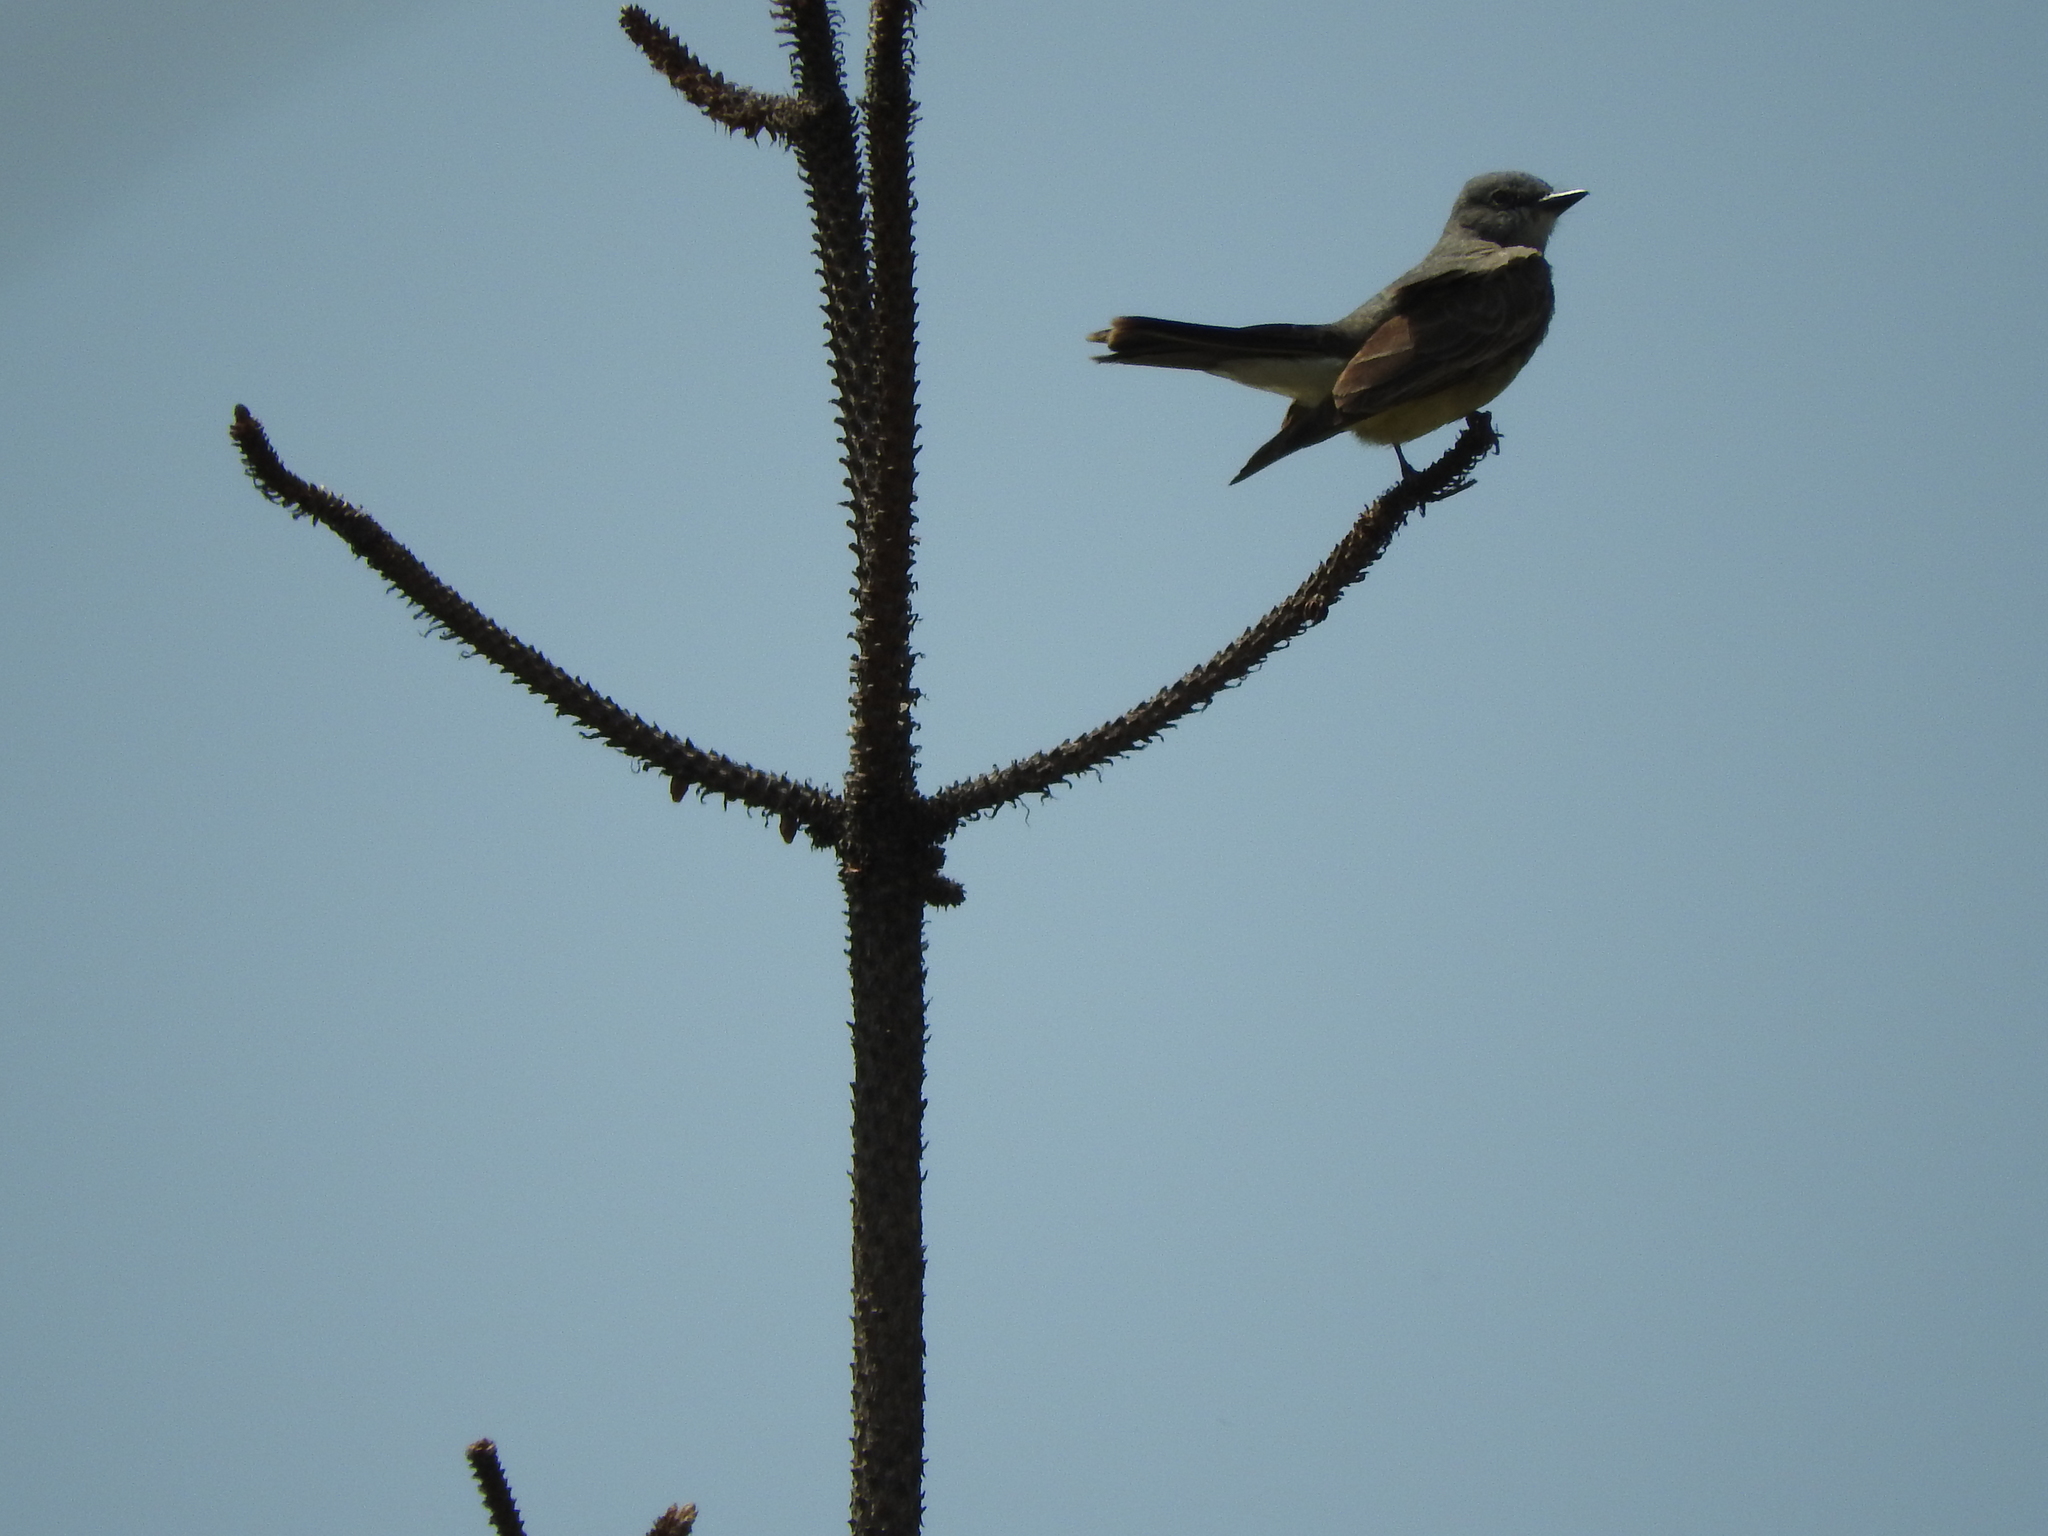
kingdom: Animalia
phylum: Chordata
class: Aves
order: Passeriformes
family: Tyrannidae
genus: Tyrannus
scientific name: Tyrannus vociferans
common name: Cassin's kingbird
